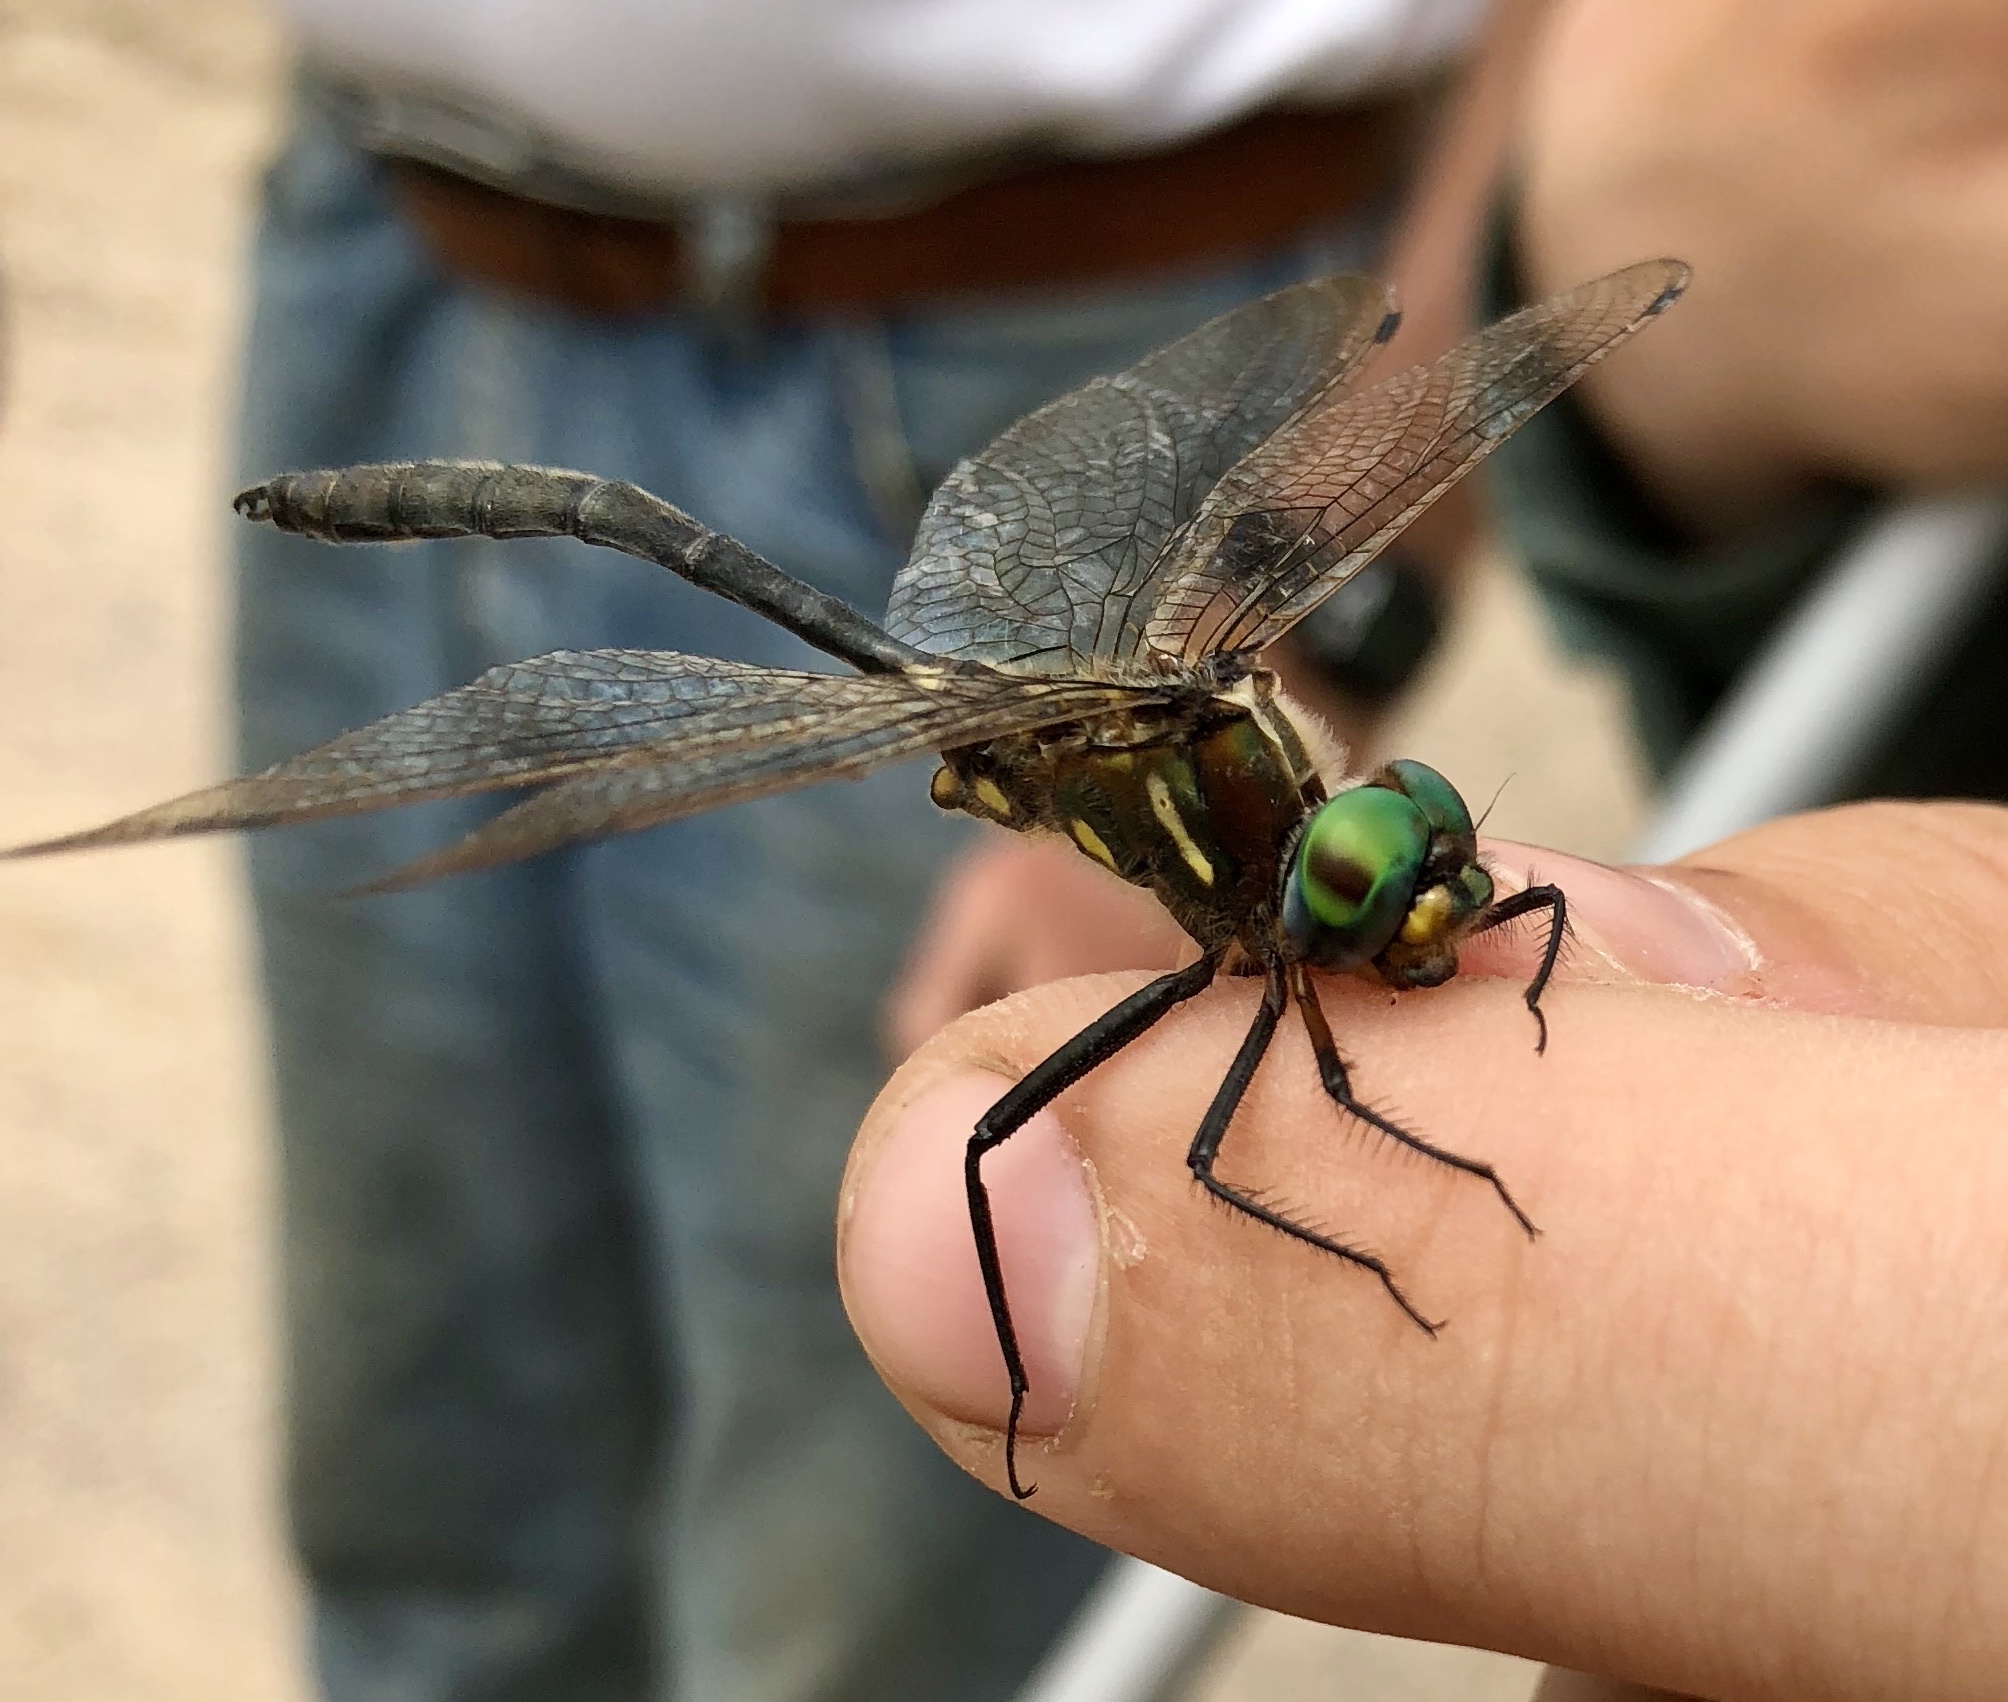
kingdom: Animalia
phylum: Arthropoda
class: Insecta
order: Odonata
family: Corduliidae
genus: Somatochlora
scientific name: Somatochlora ensigera
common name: Plains emerald
